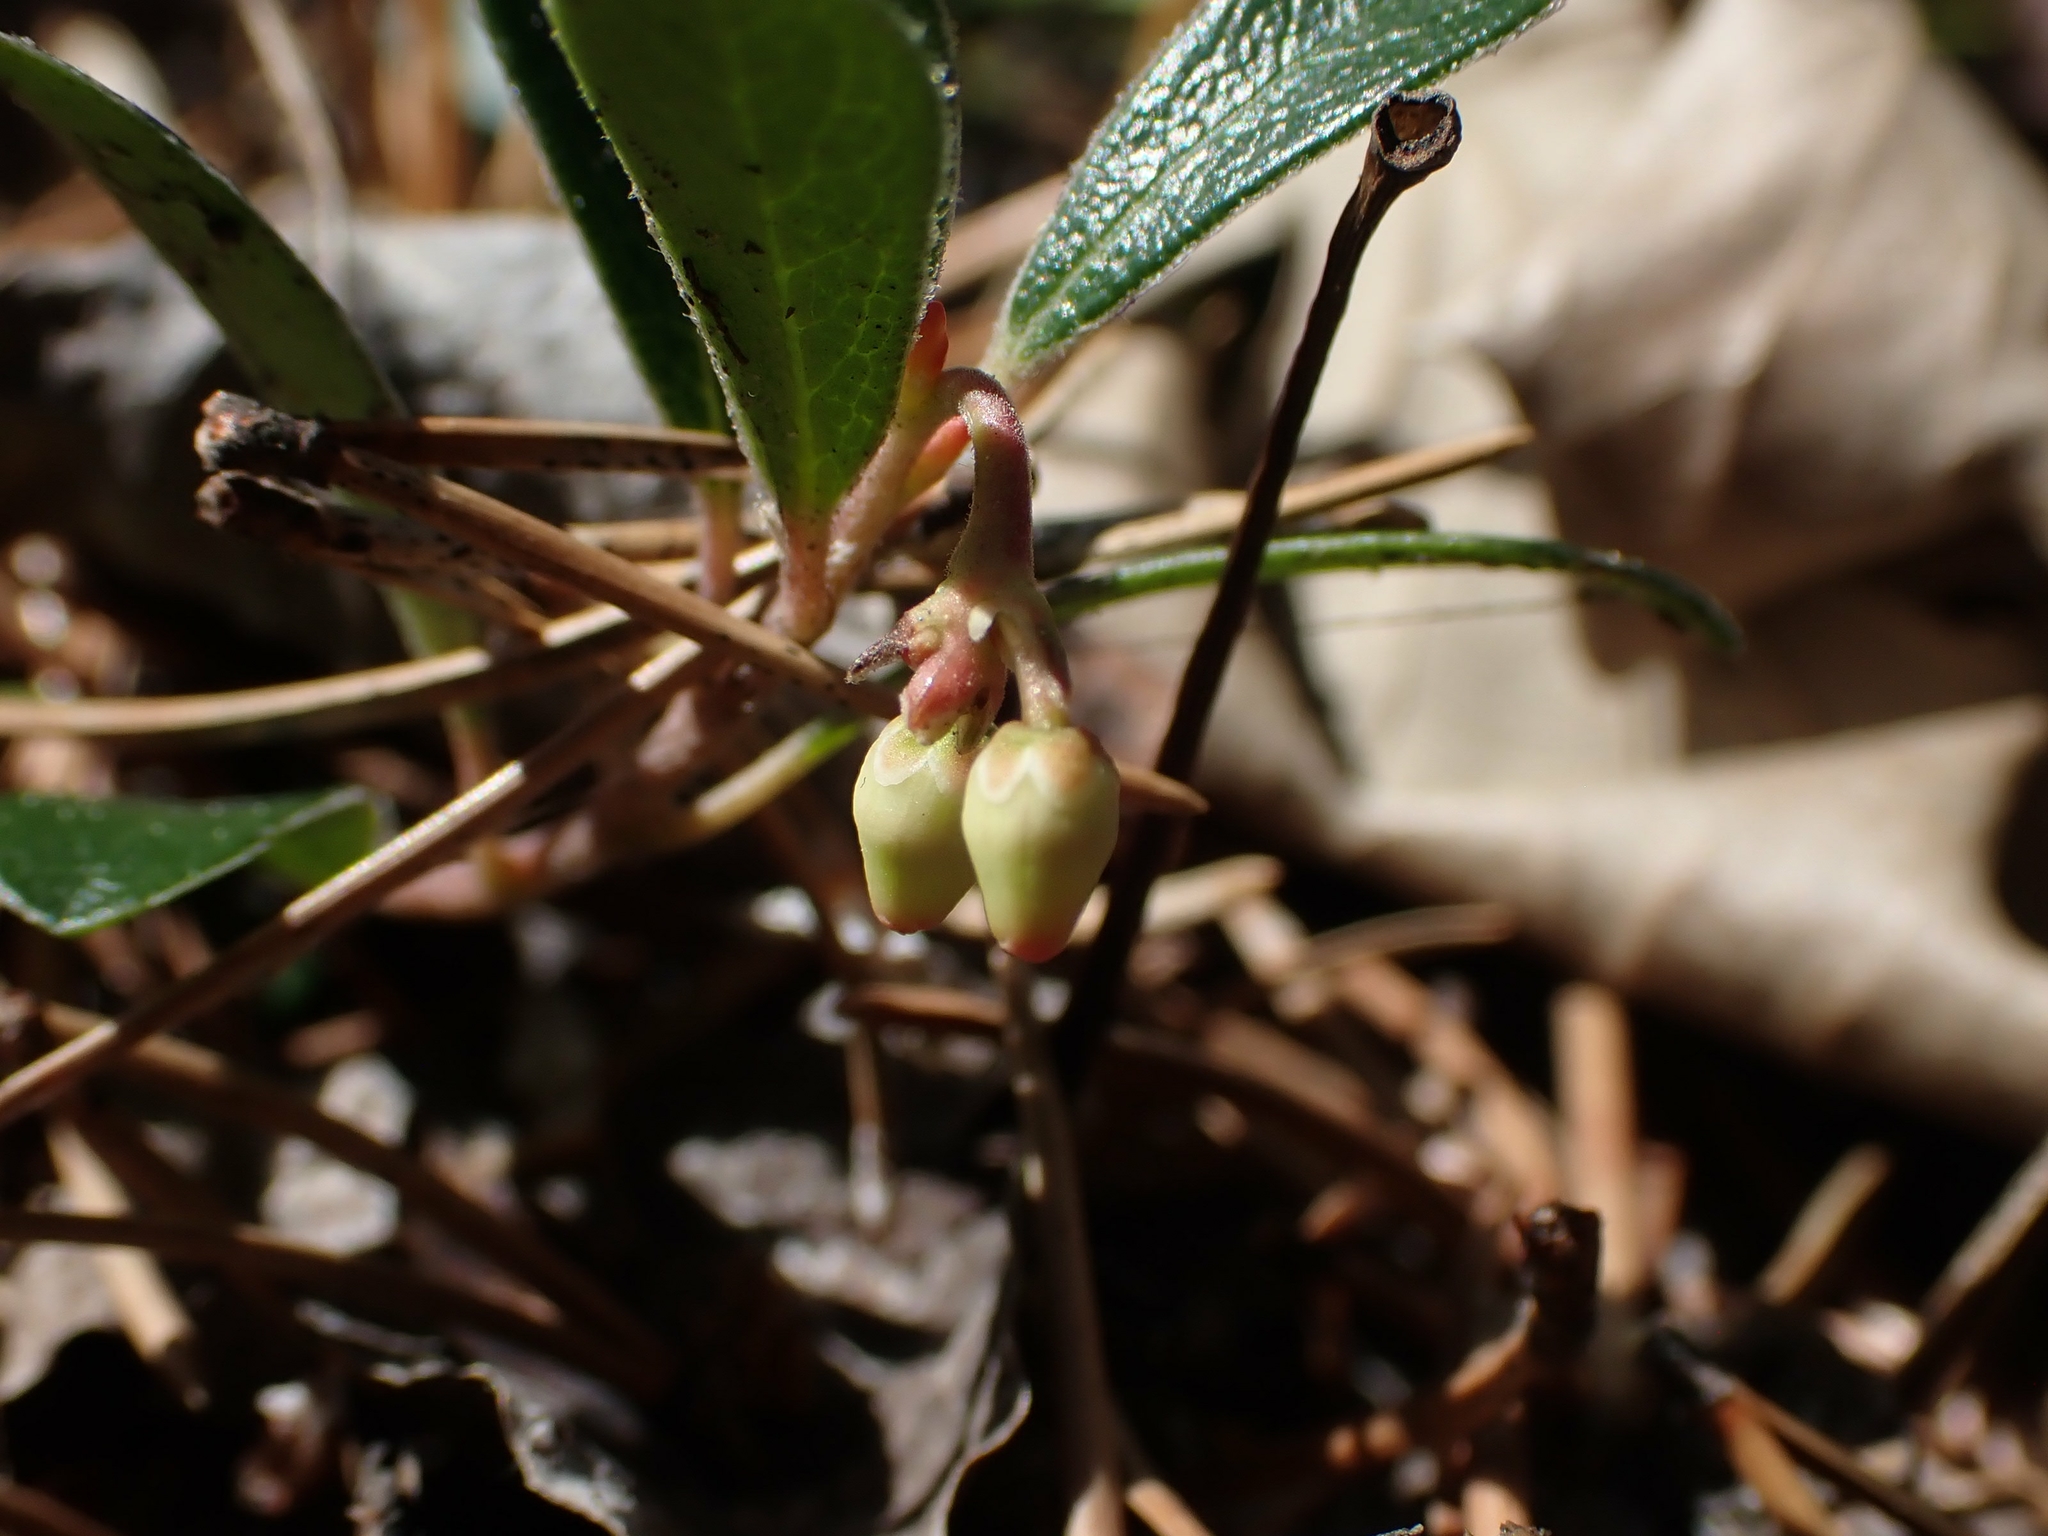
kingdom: Plantae
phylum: Tracheophyta
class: Magnoliopsida
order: Ericales
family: Ericaceae
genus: Arctostaphylos
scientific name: Arctostaphylos uva-ursi
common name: Bearberry
